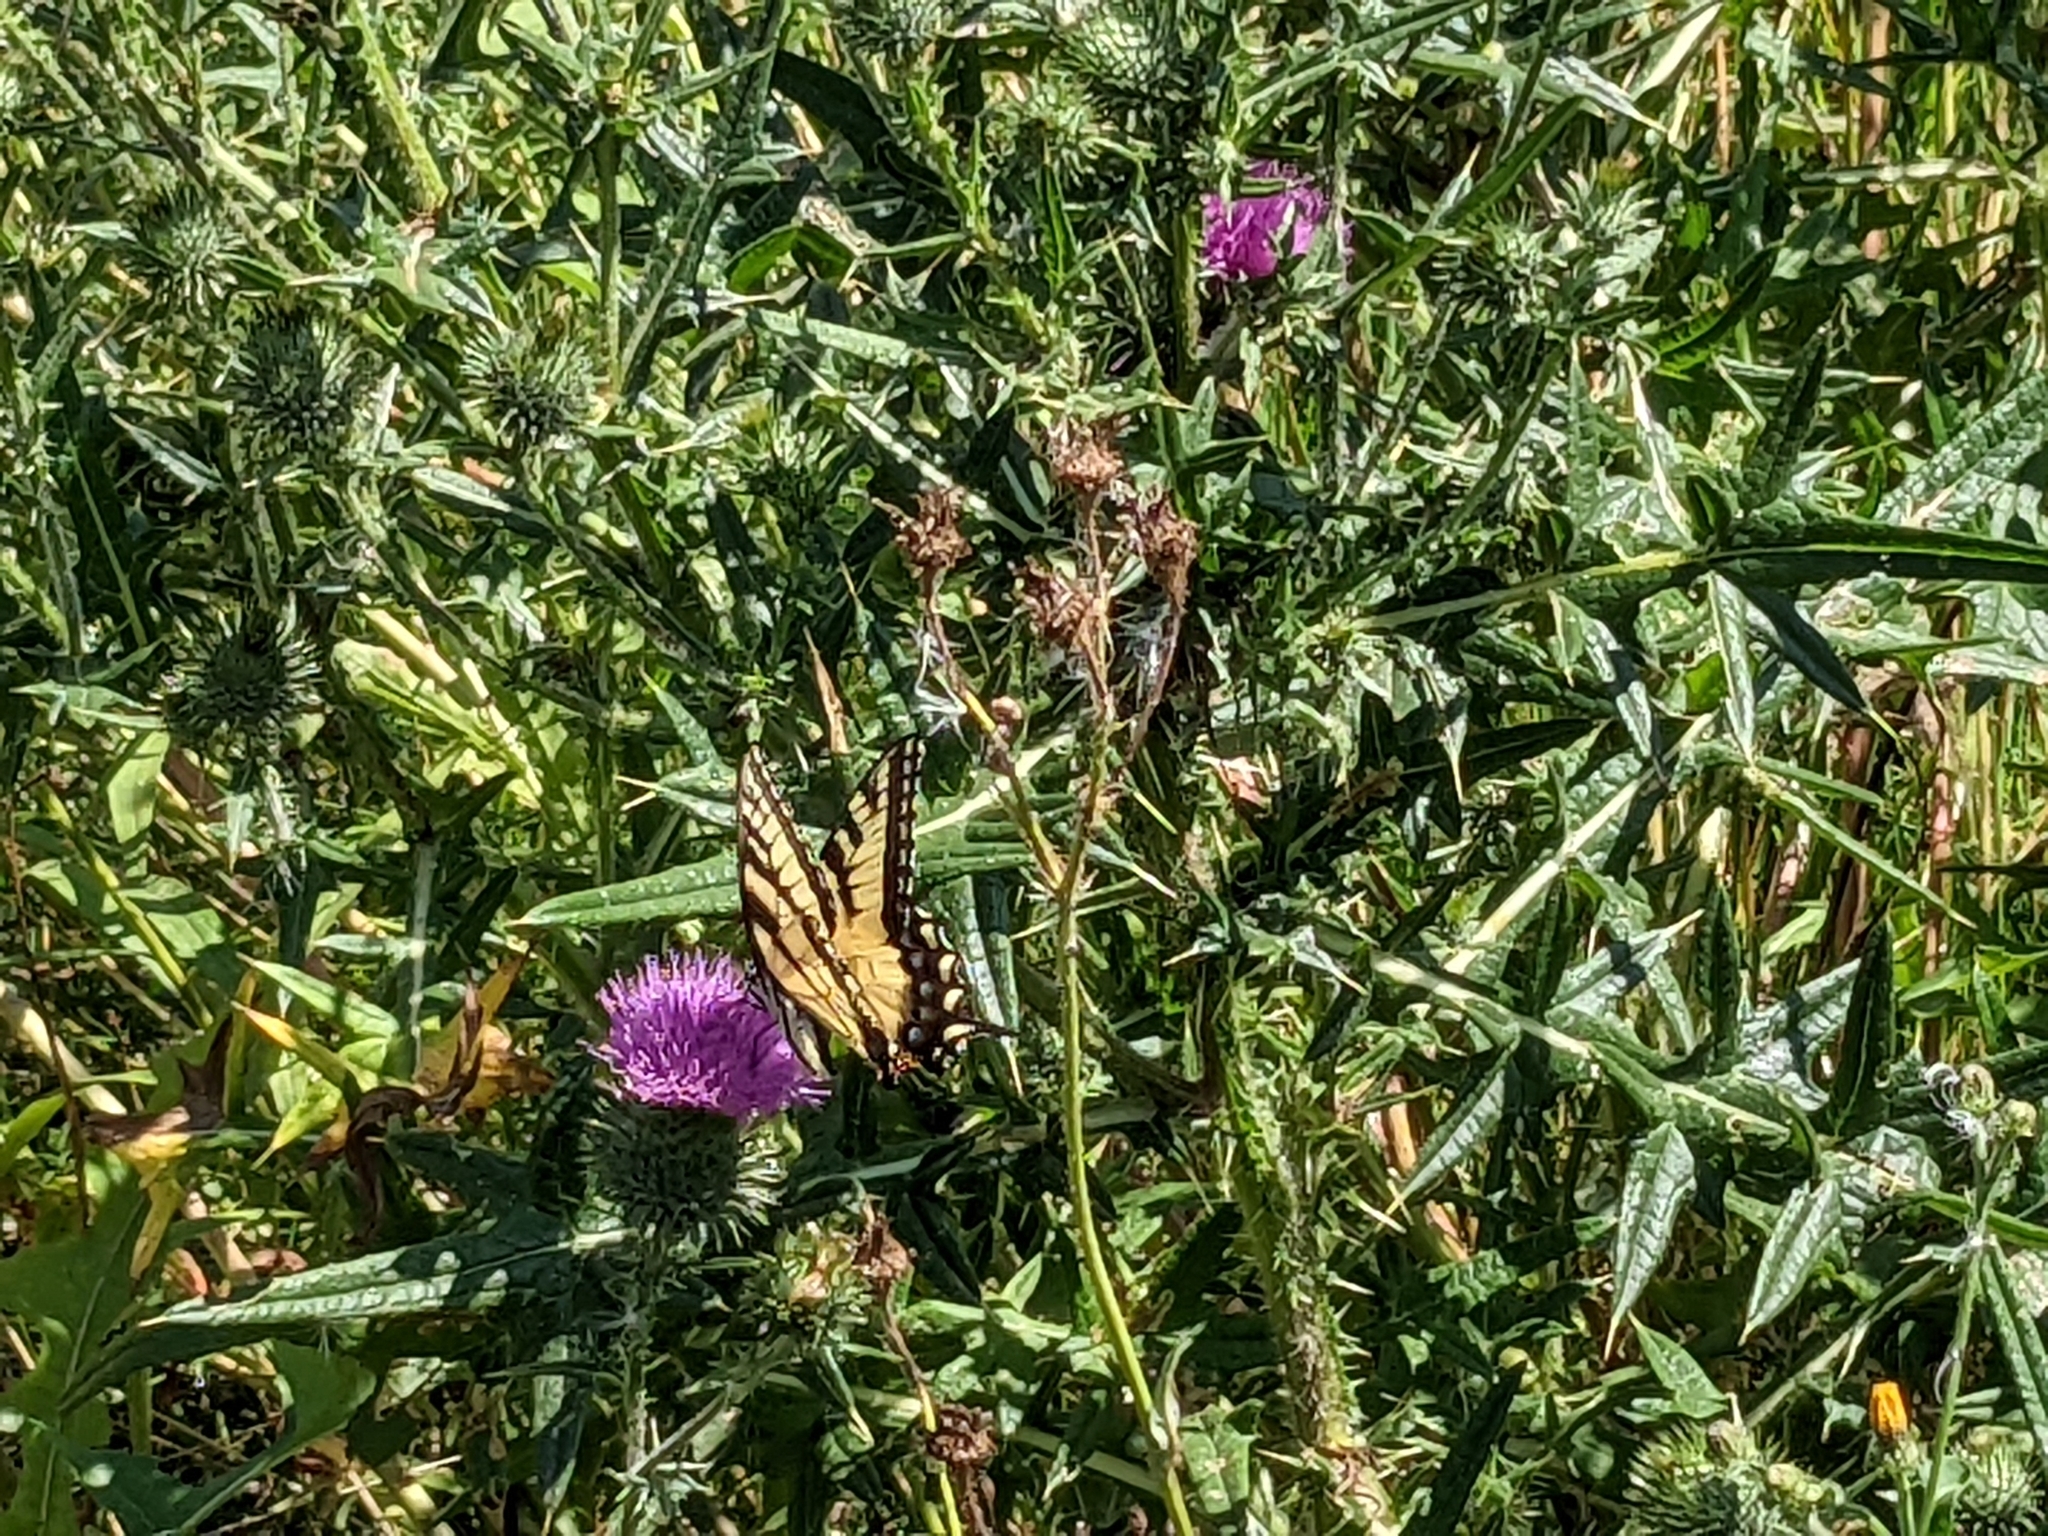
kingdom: Animalia
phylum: Arthropoda
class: Insecta
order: Lepidoptera
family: Papilionidae
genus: Papilio
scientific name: Papilio glaucus
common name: Tiger swallowtail
